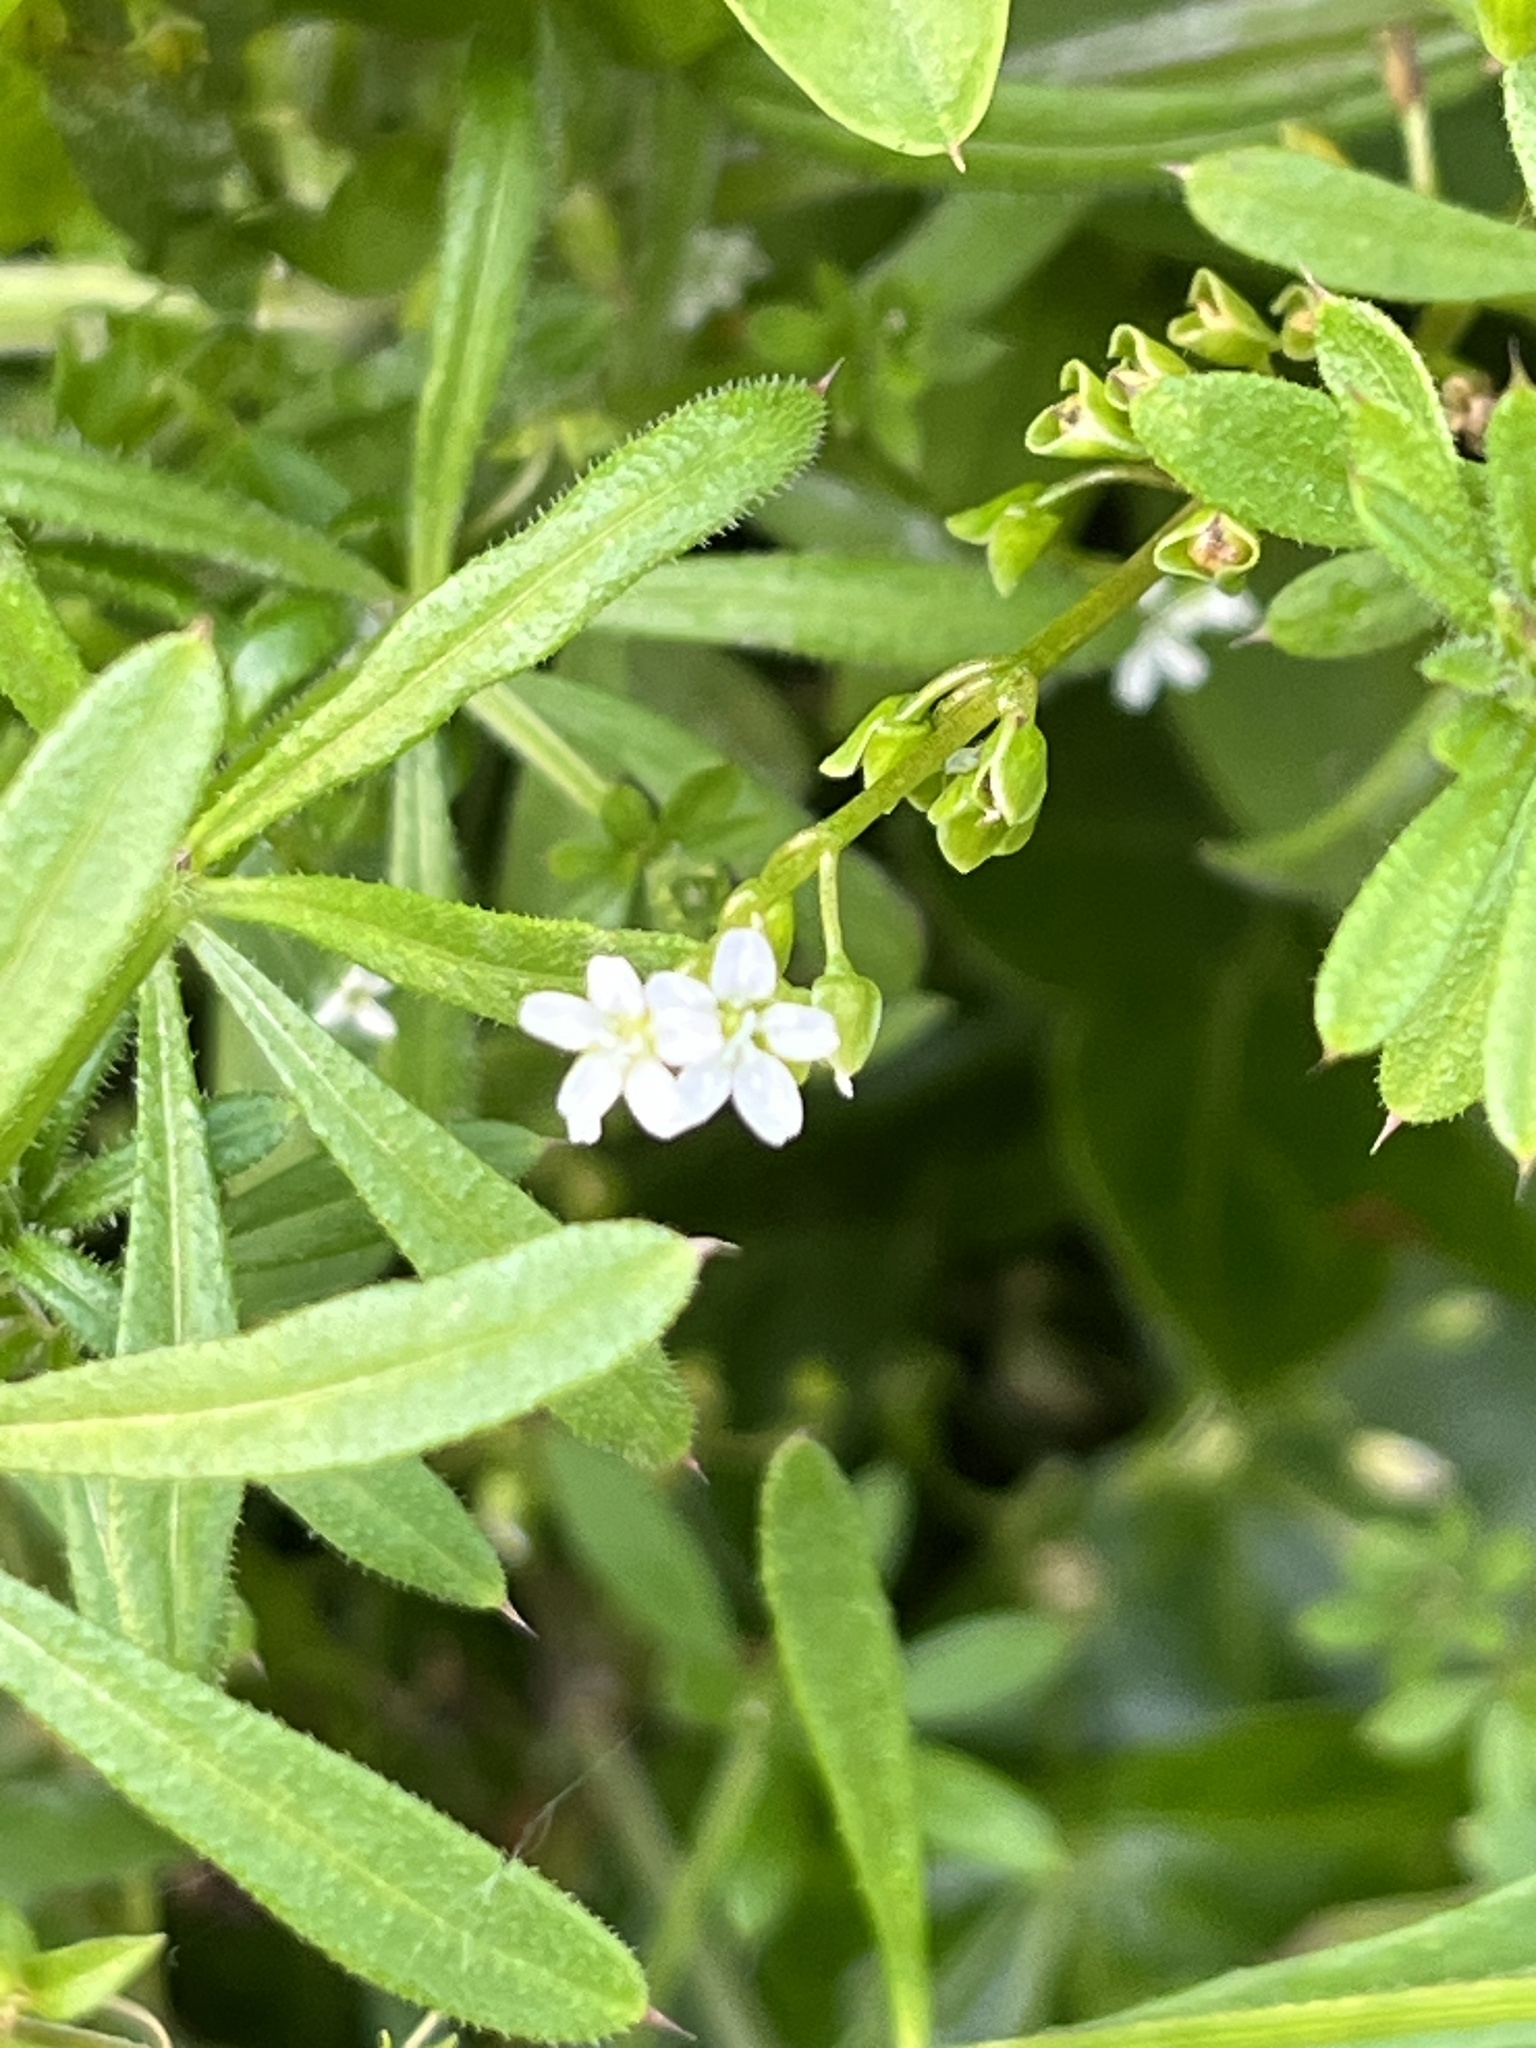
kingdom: Plantae
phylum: Tracheophyta
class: Magnoliopsida
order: Caryophyllales
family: Montiaceae
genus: Claytonia
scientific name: Claytonia perfoliata
